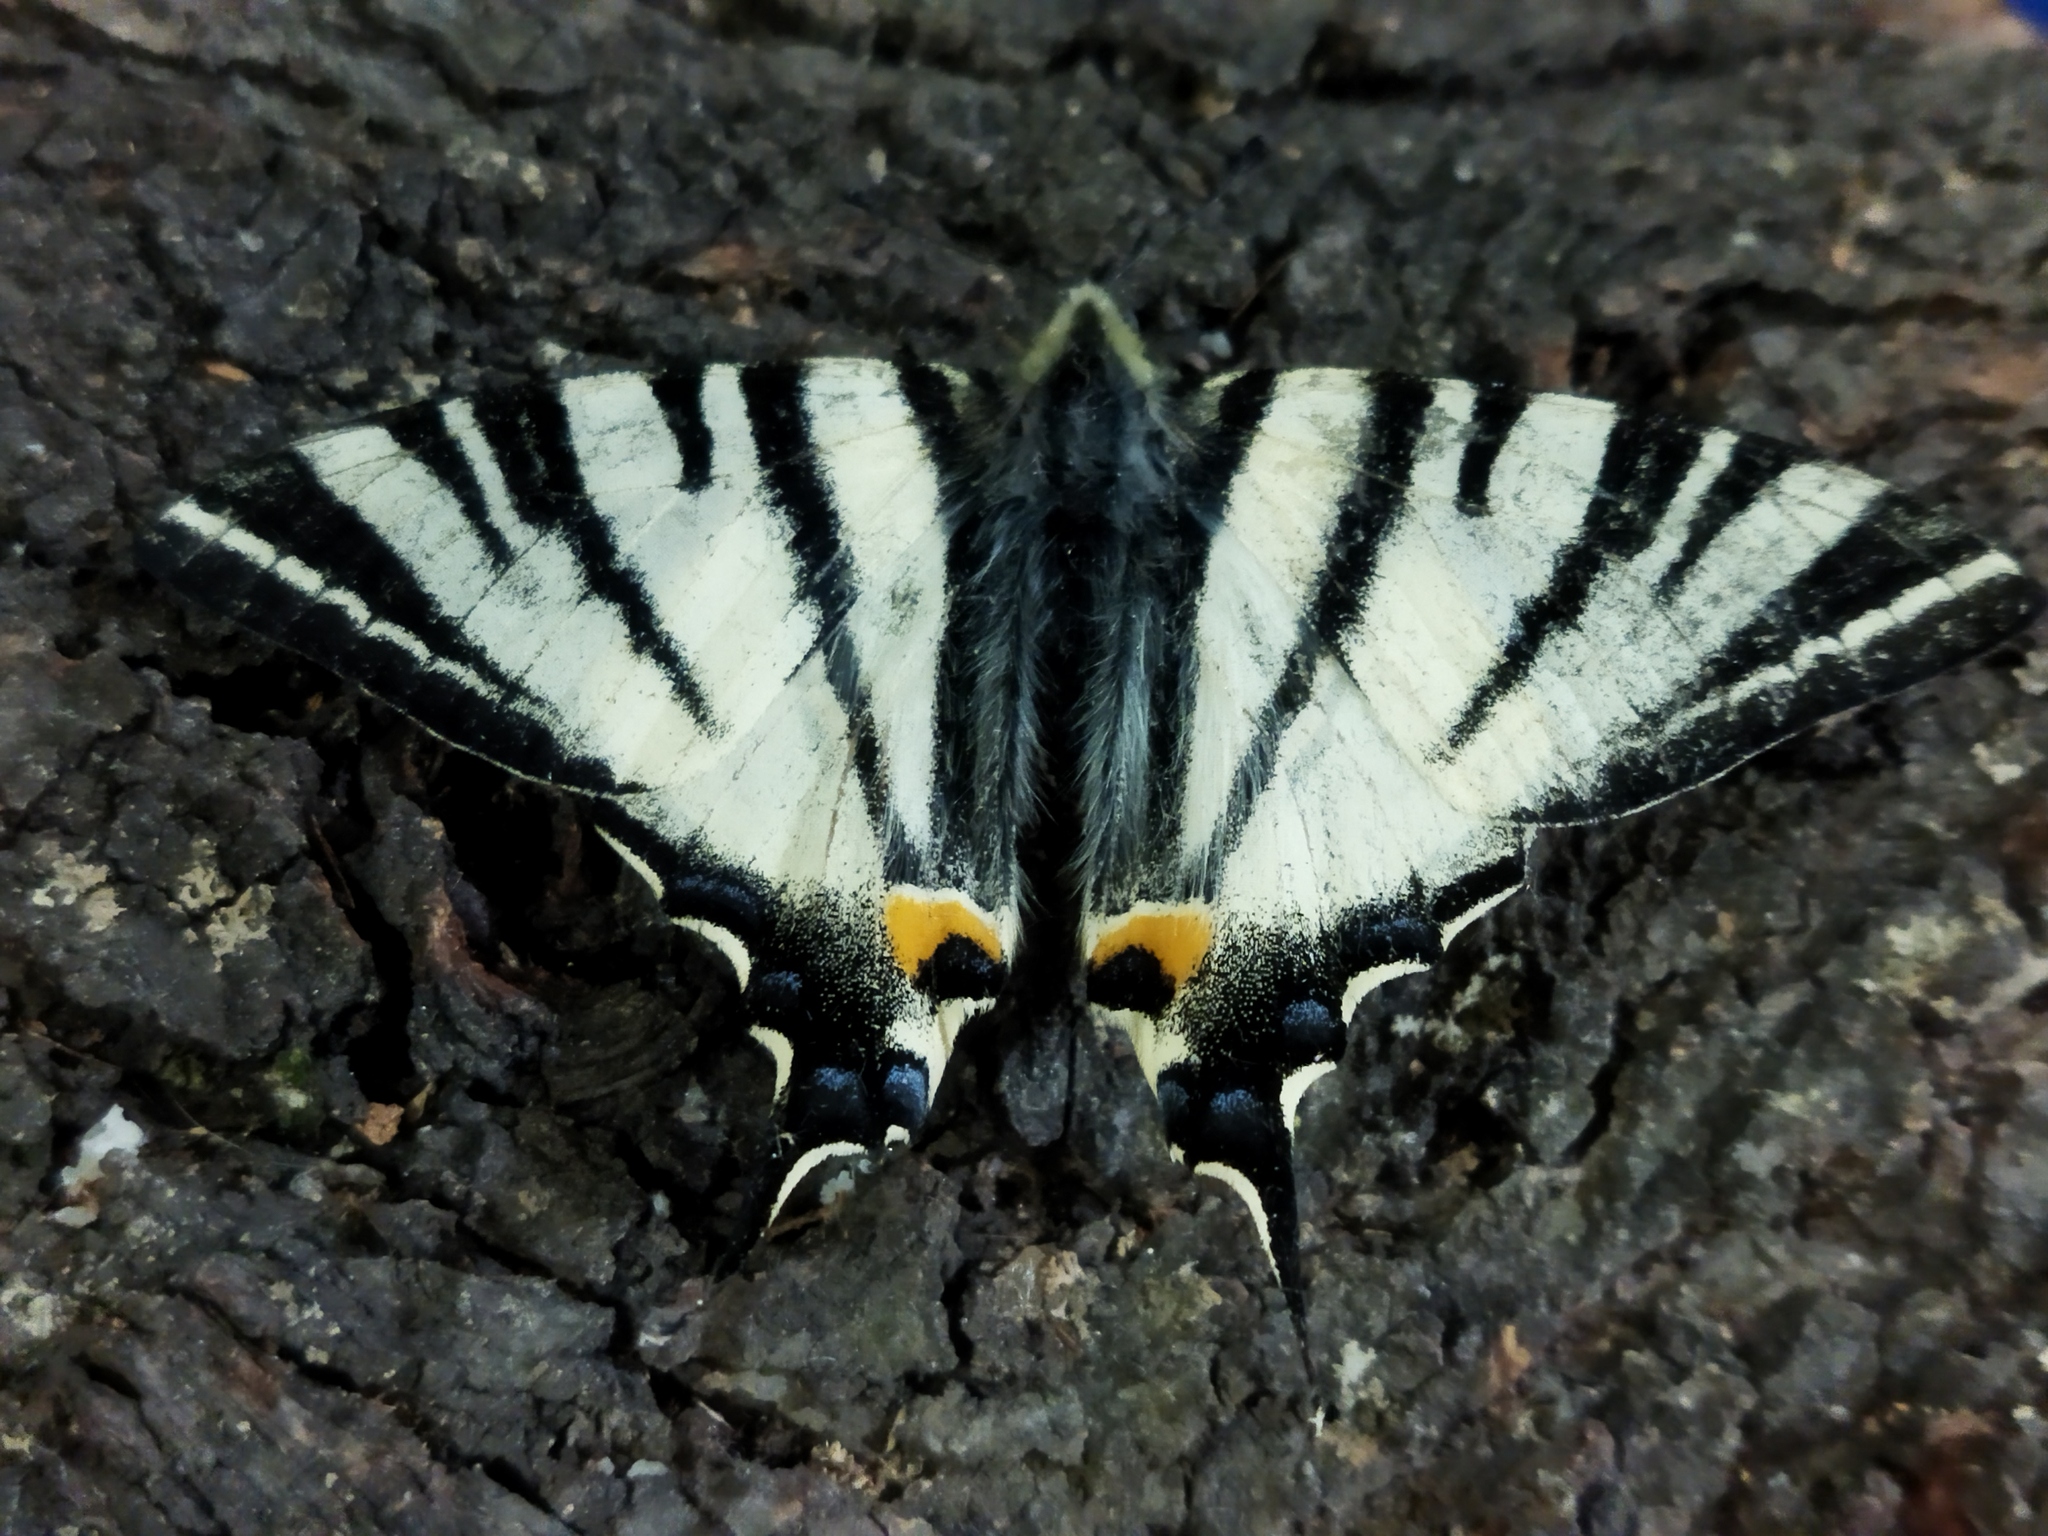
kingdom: Animalia
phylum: Arthropoda
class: Insecta
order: Lepidoptera
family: Papilionidae
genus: Iphiclides
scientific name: Iphiclides podalirius
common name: Scarce swallowtail
